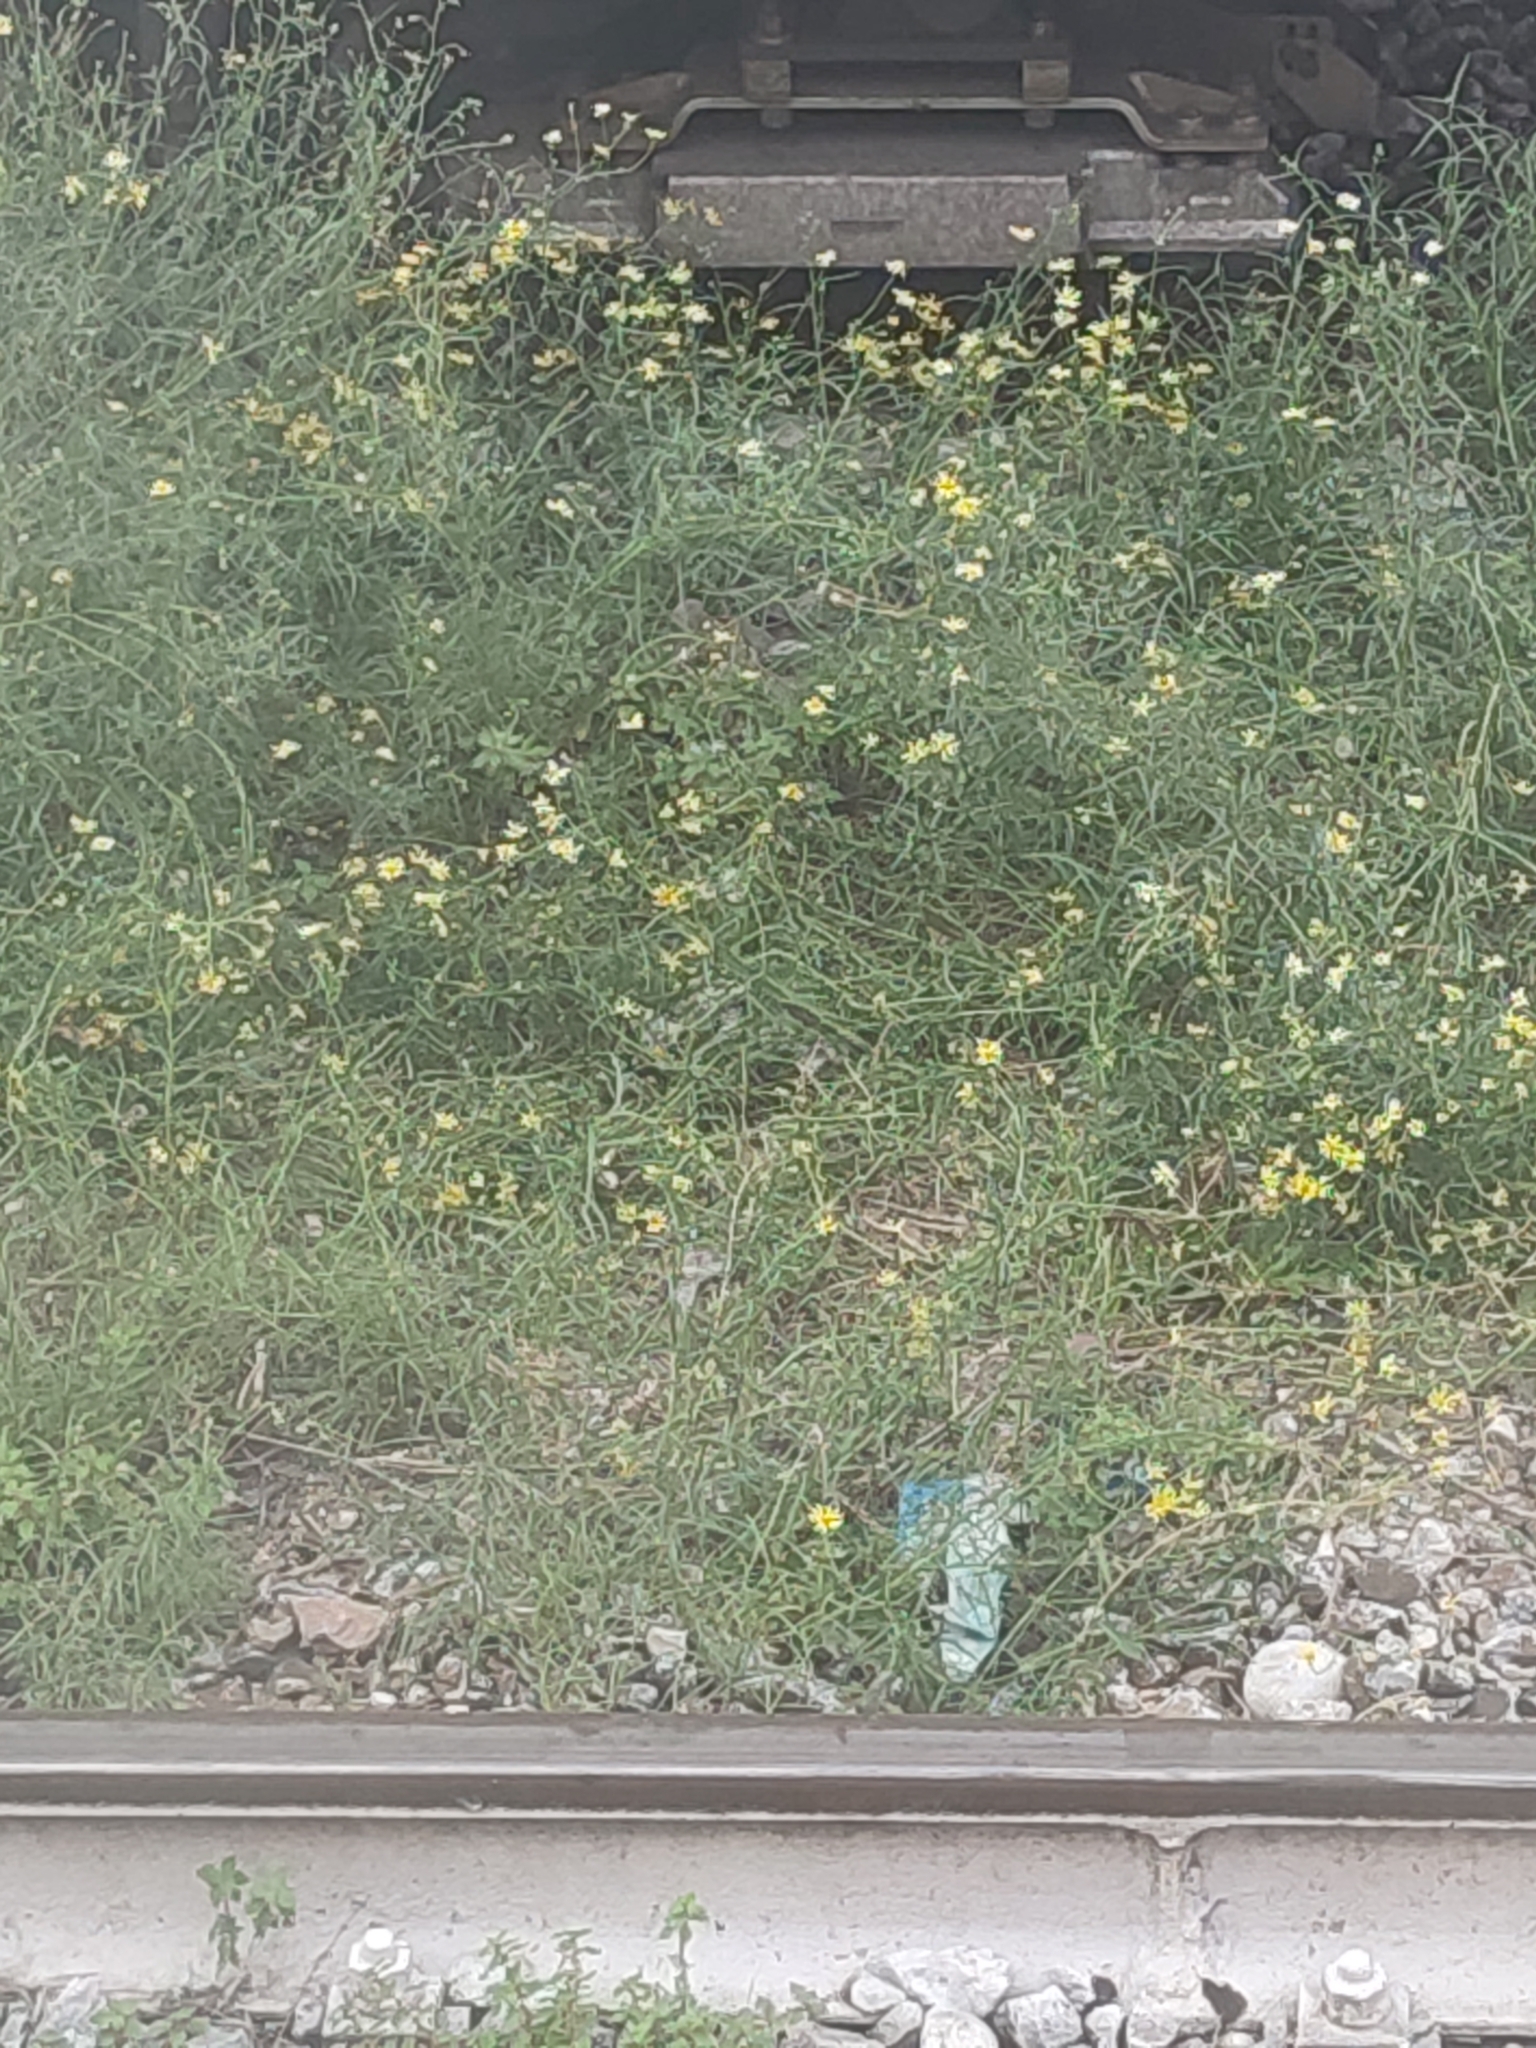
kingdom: Plantae
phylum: Tracheophyta
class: Magnoliopsida
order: Asterales
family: Asteraceae
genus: Senecio
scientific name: Senecio inaequidens
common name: Narrow-leaved ragwort
